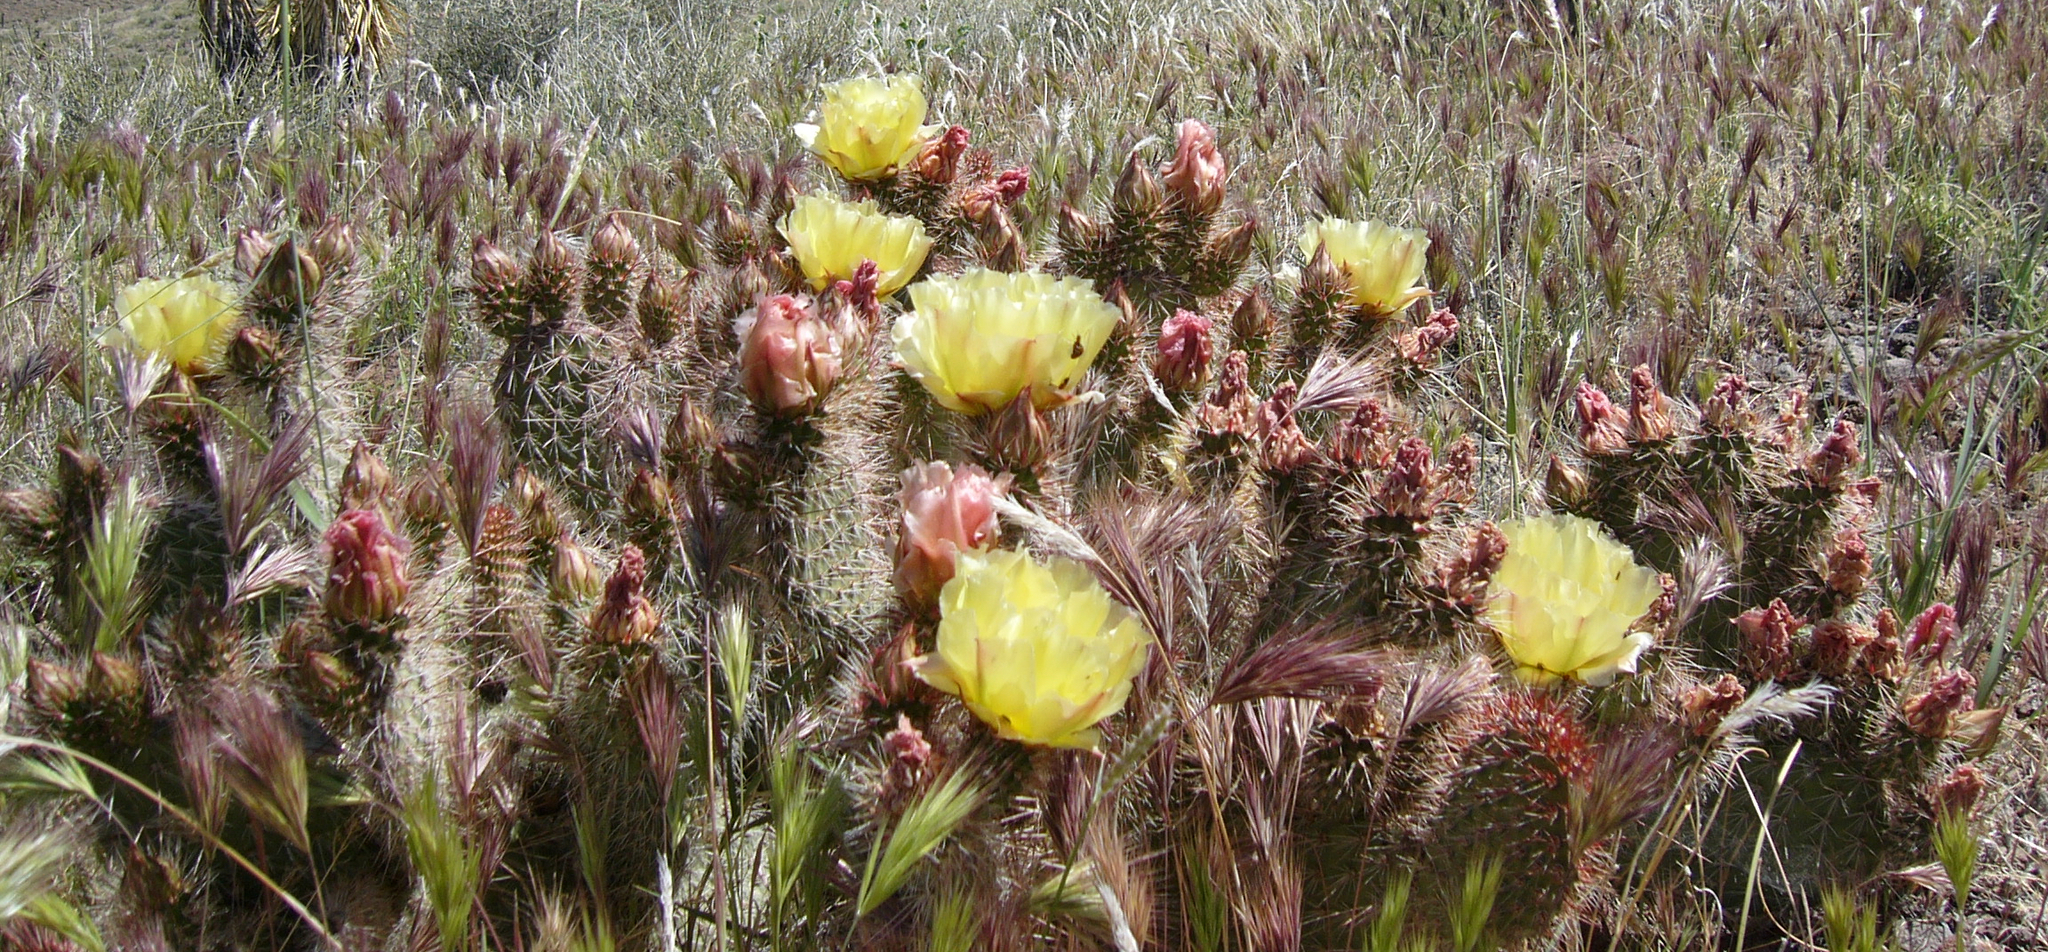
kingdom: Plantae
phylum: Tracheophyta
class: Magnoliopsida
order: Caryophyllales
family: Cactaceae
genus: Opuntia
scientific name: Opuntia polyacantha
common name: Plains prickly-pear
